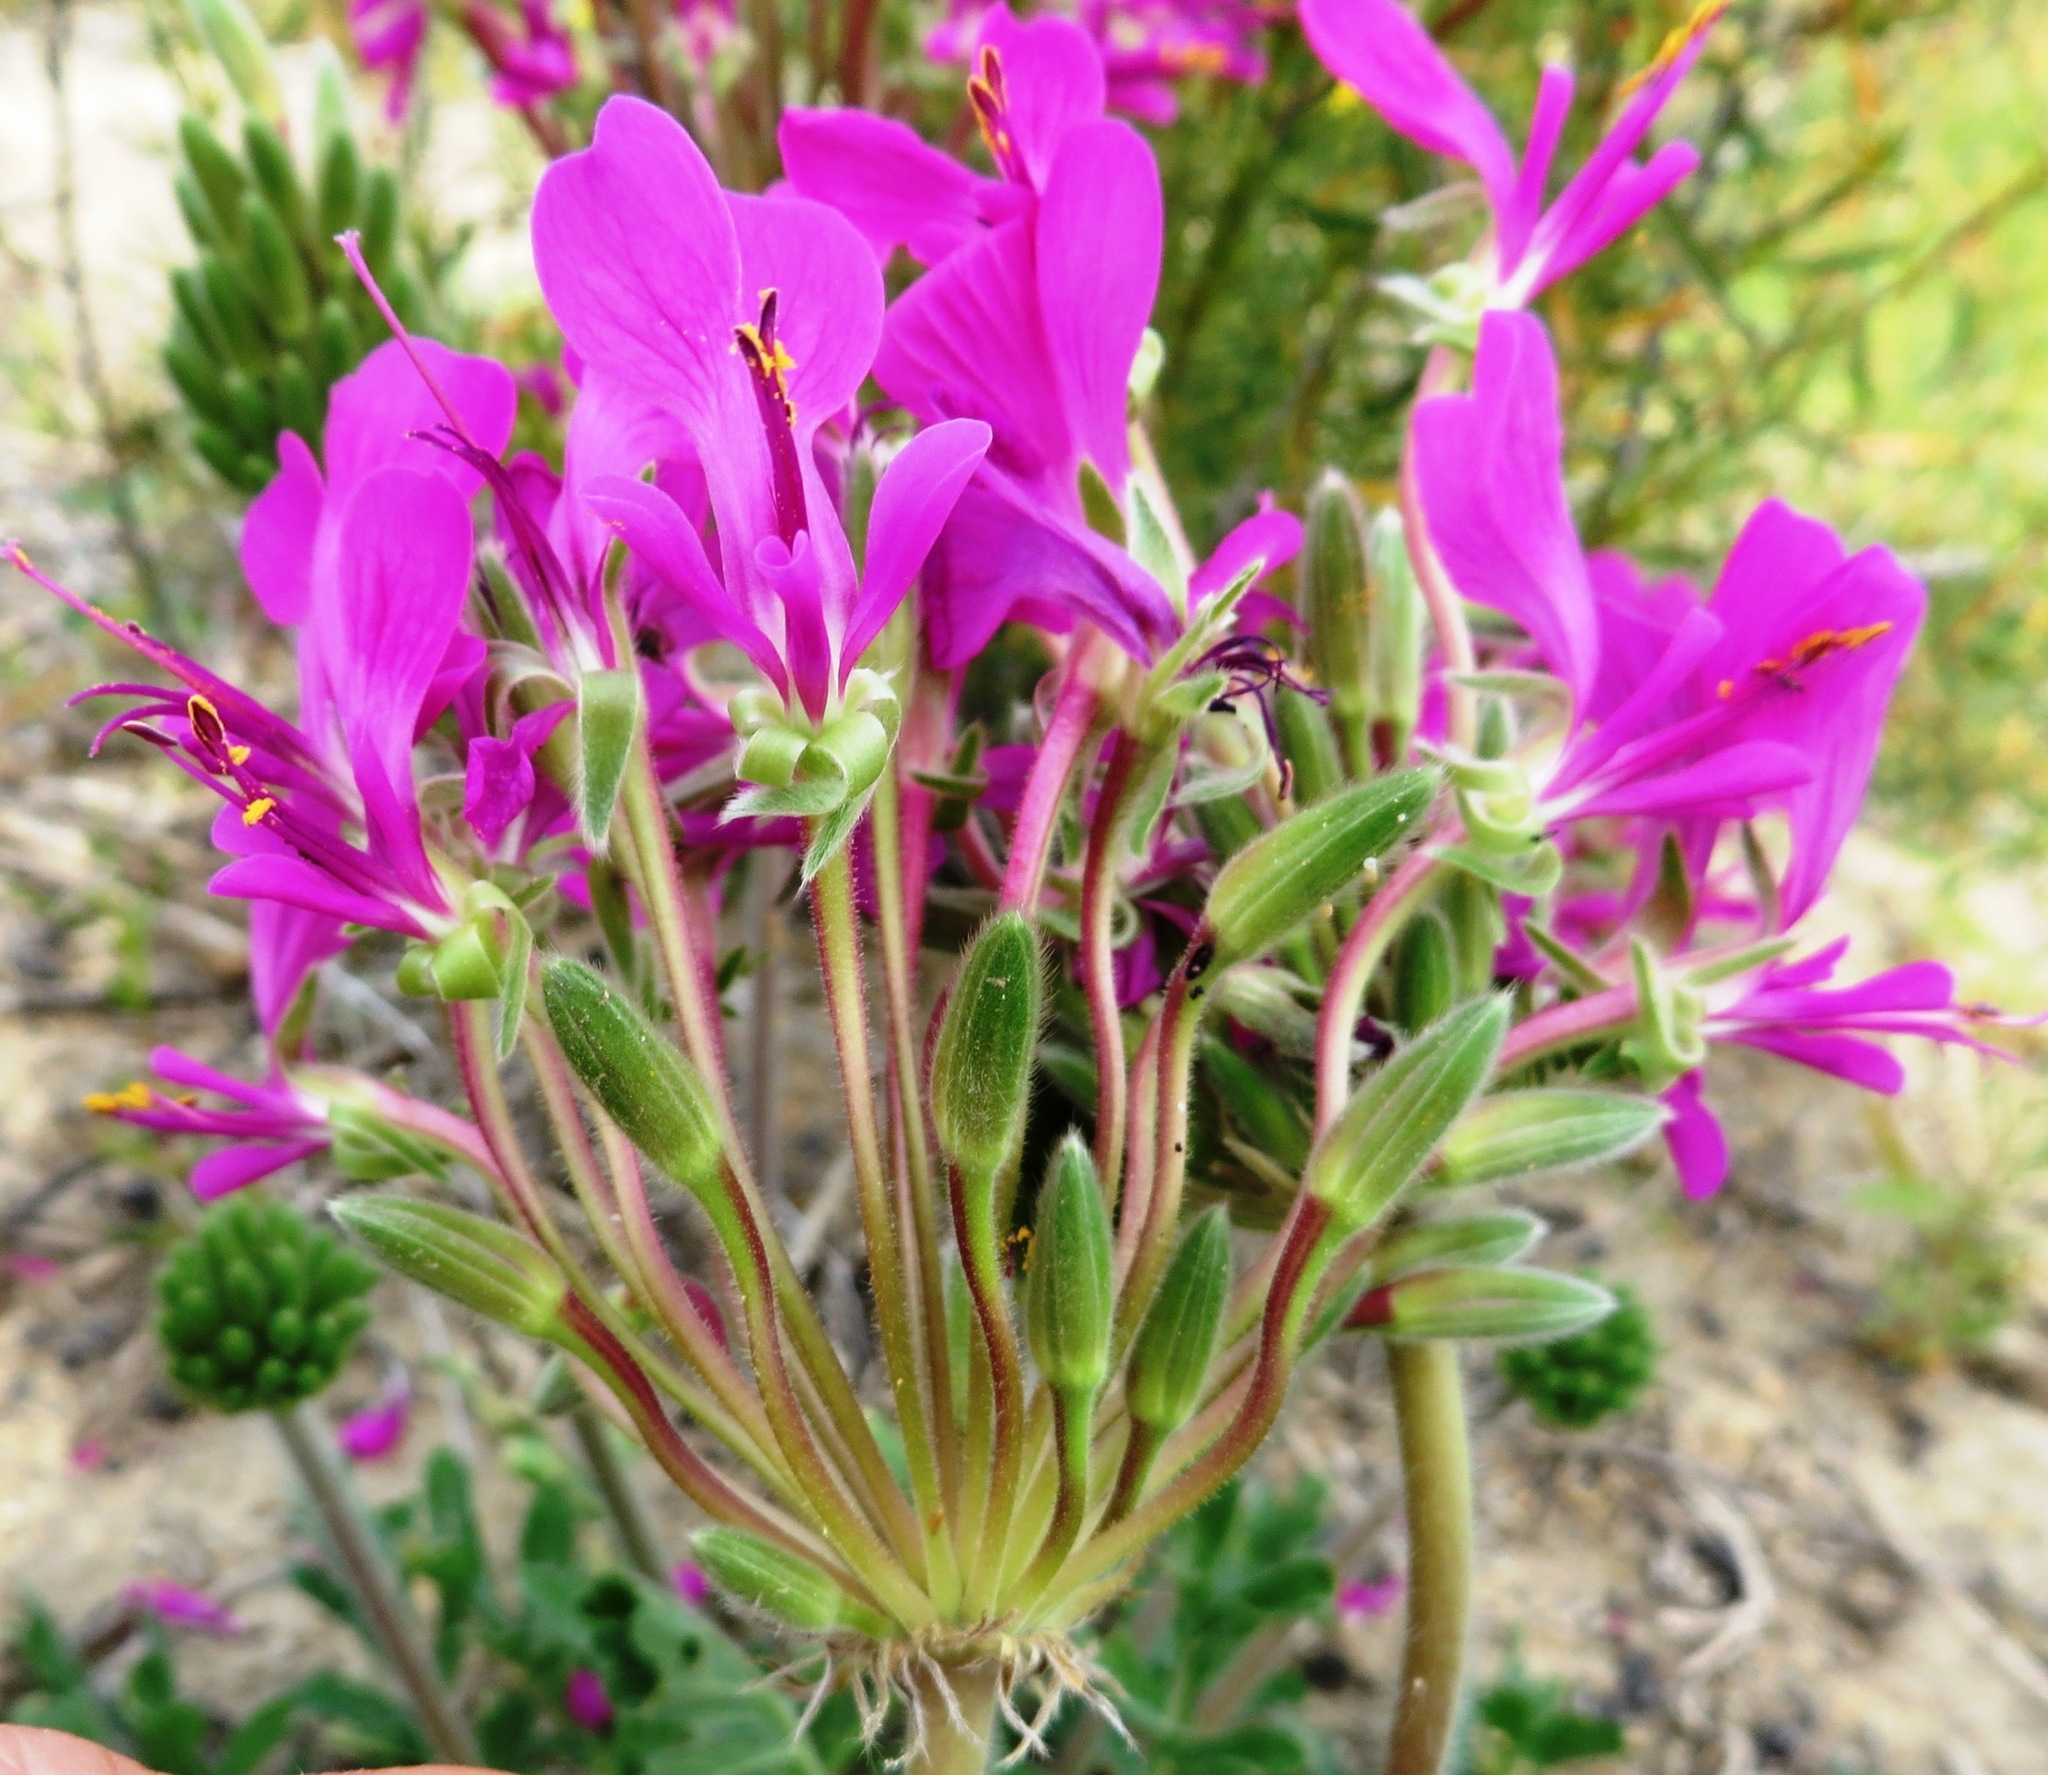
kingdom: Plantae
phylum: Tracheophyta
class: Magnoliopsida
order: Geraniales
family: Geraniaceae
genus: Pelargonium
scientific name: Pelargonium incrassatum
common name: Namaqualand beauty
